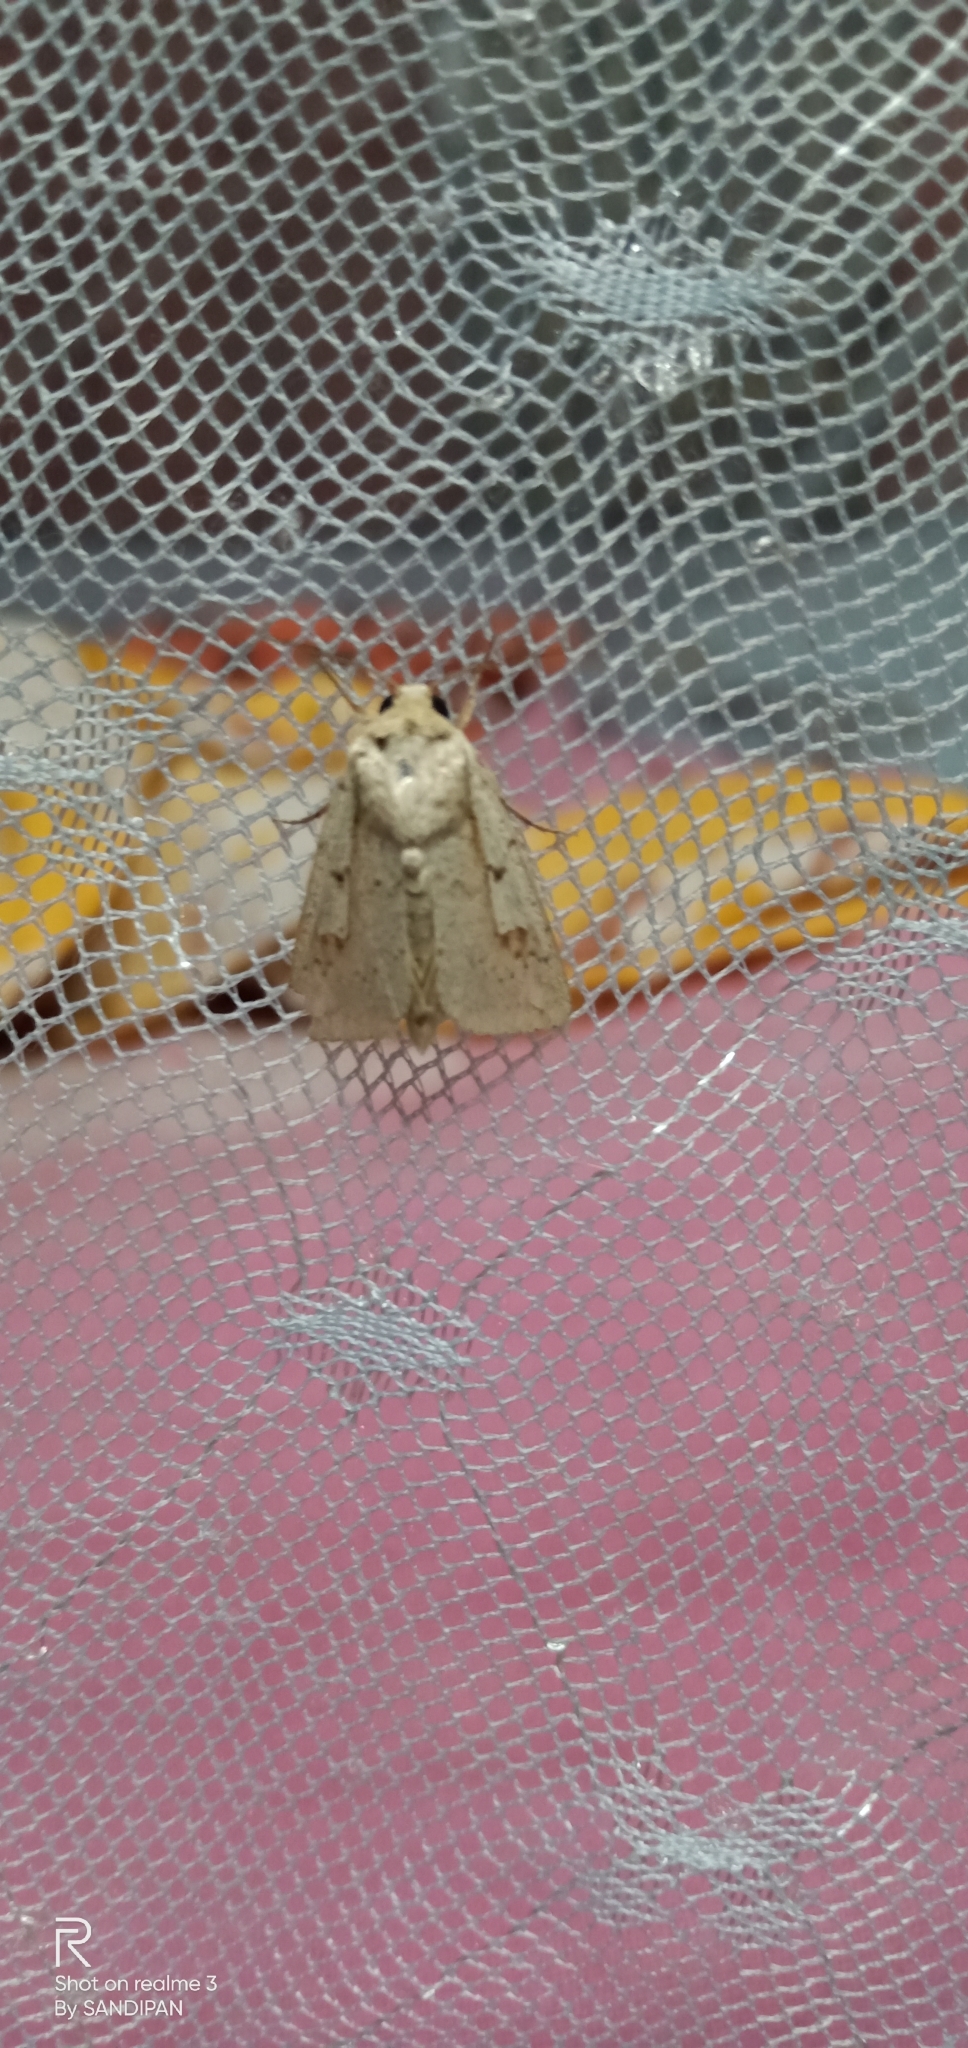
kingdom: Animalia
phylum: Arthropoda
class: Insecta
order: Lepidoptera
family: Noctuidae
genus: Leucania
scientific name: Leucania yu
